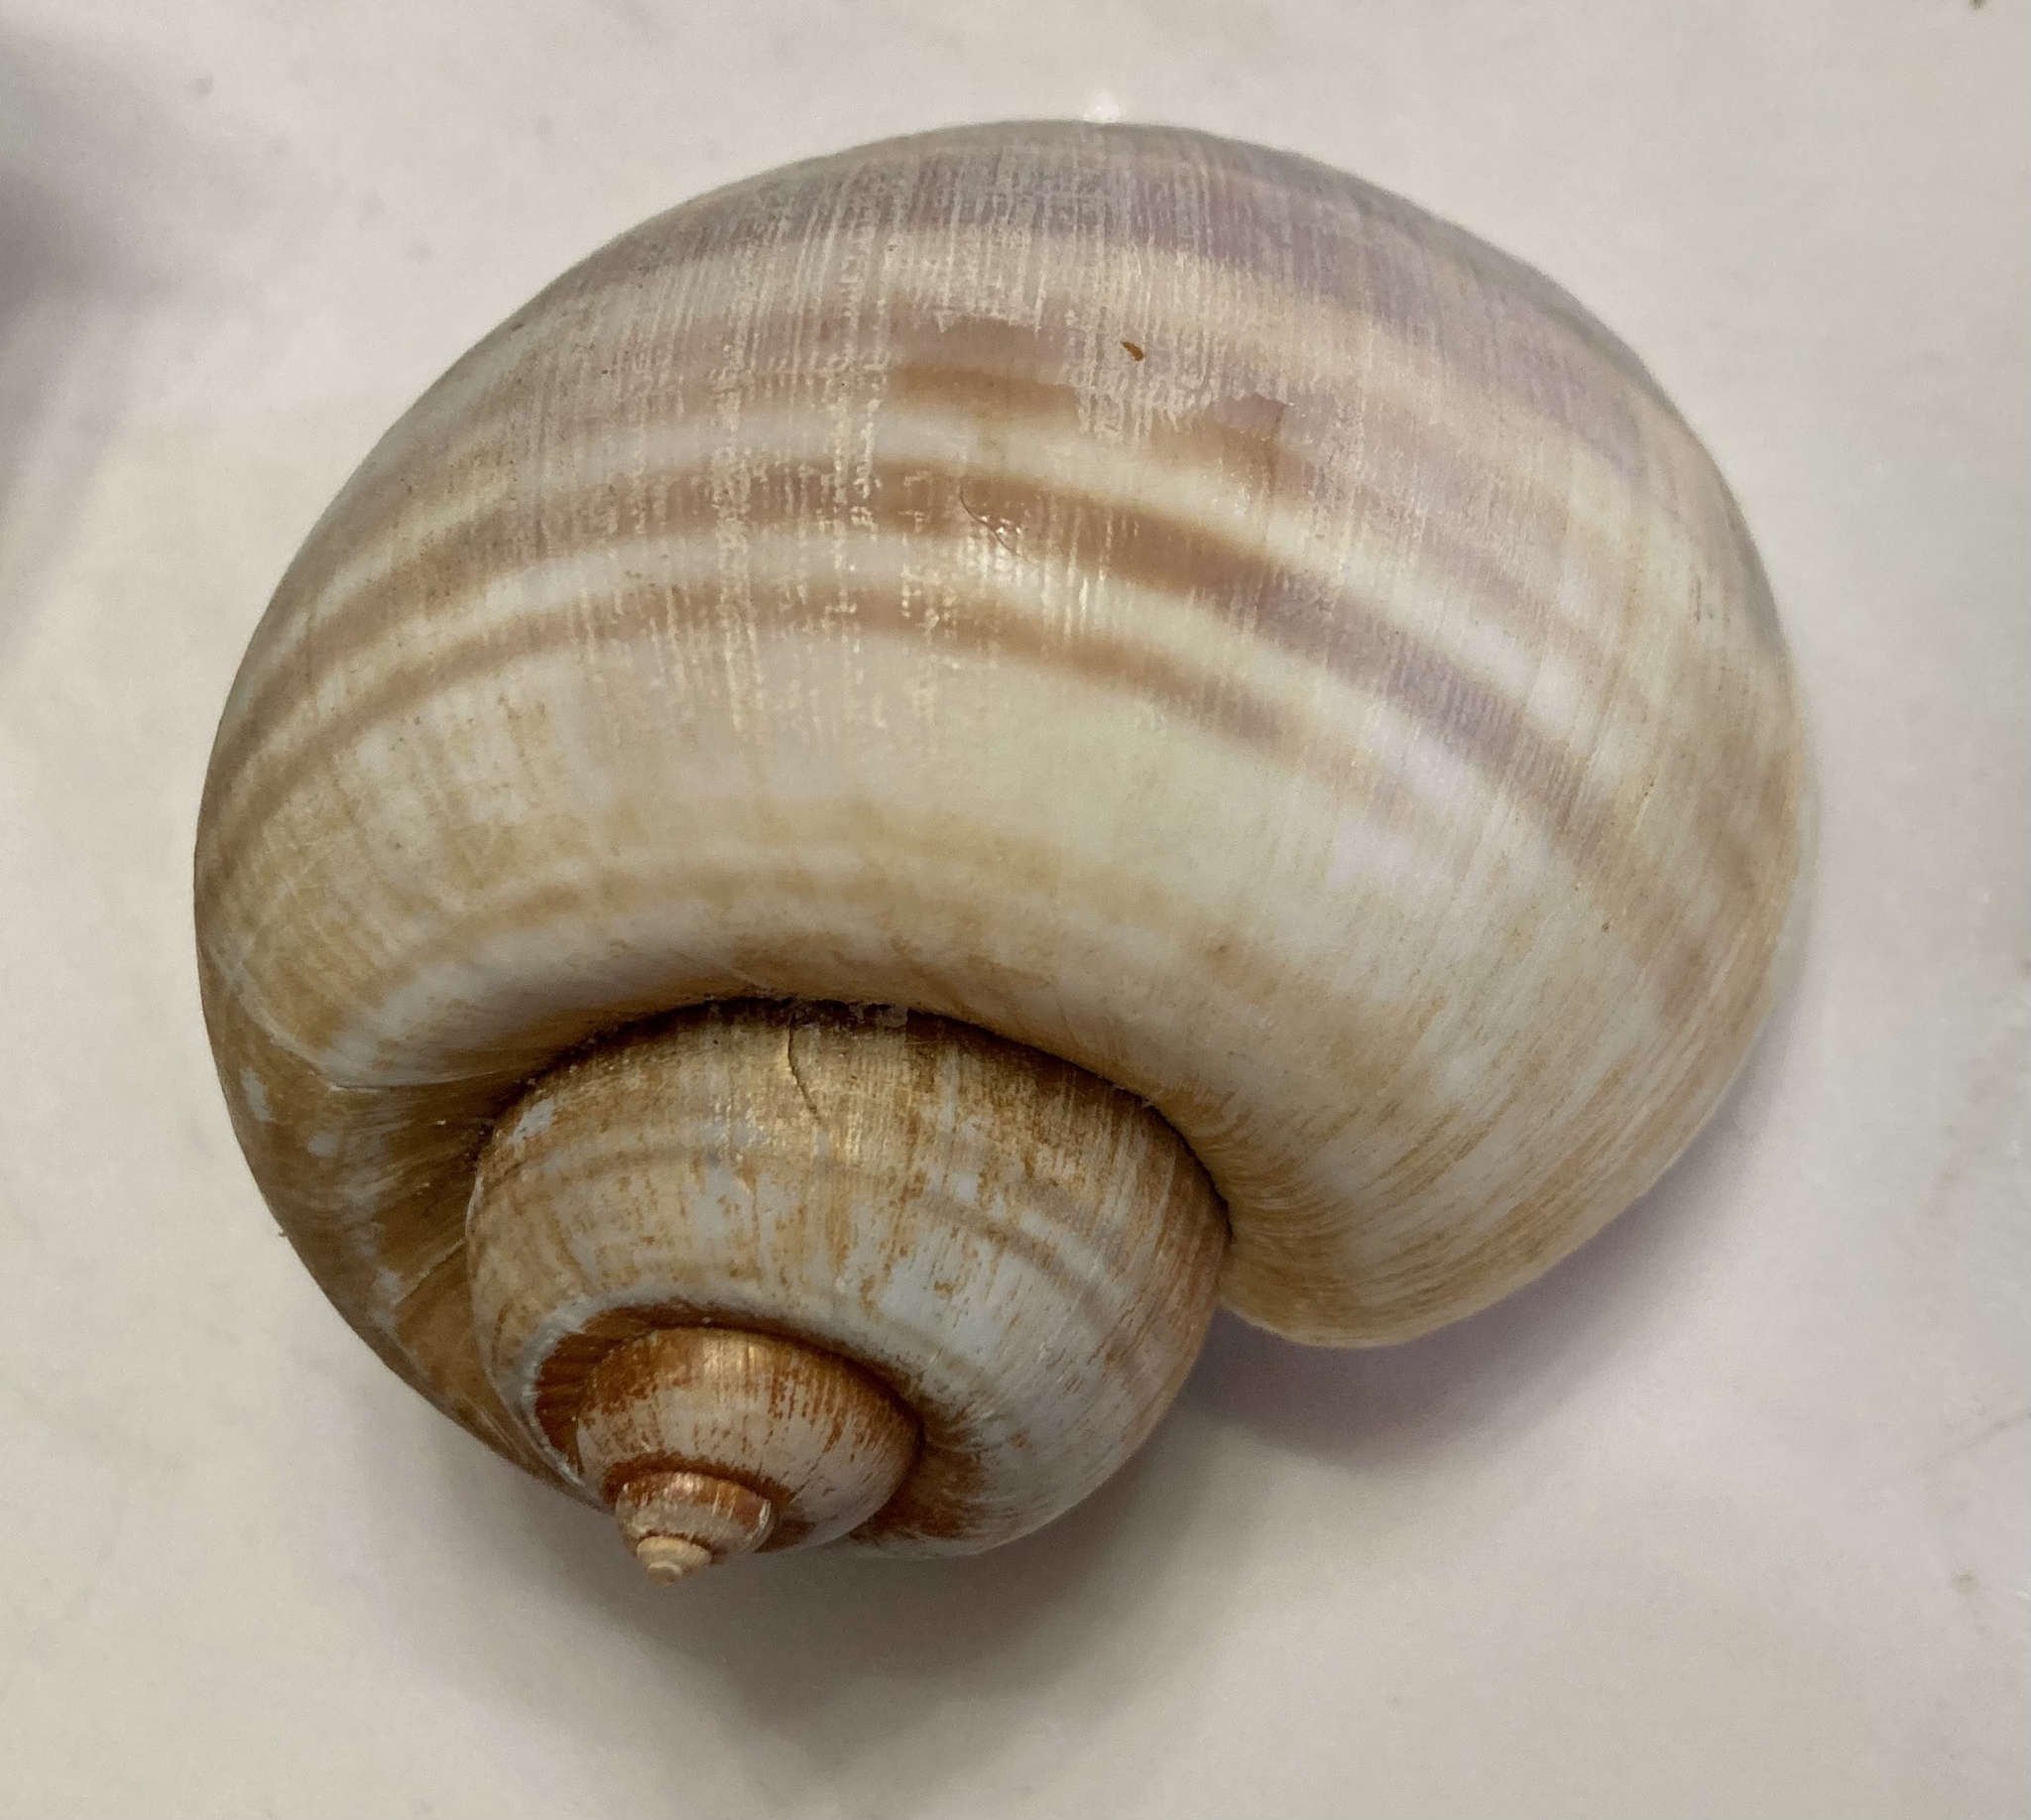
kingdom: Animalia
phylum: Mollusca
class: Gastropoda
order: Architaenioglossa
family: Ampullariidae
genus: Pomacea
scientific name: Pomacea maculata
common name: Giant applesnail
